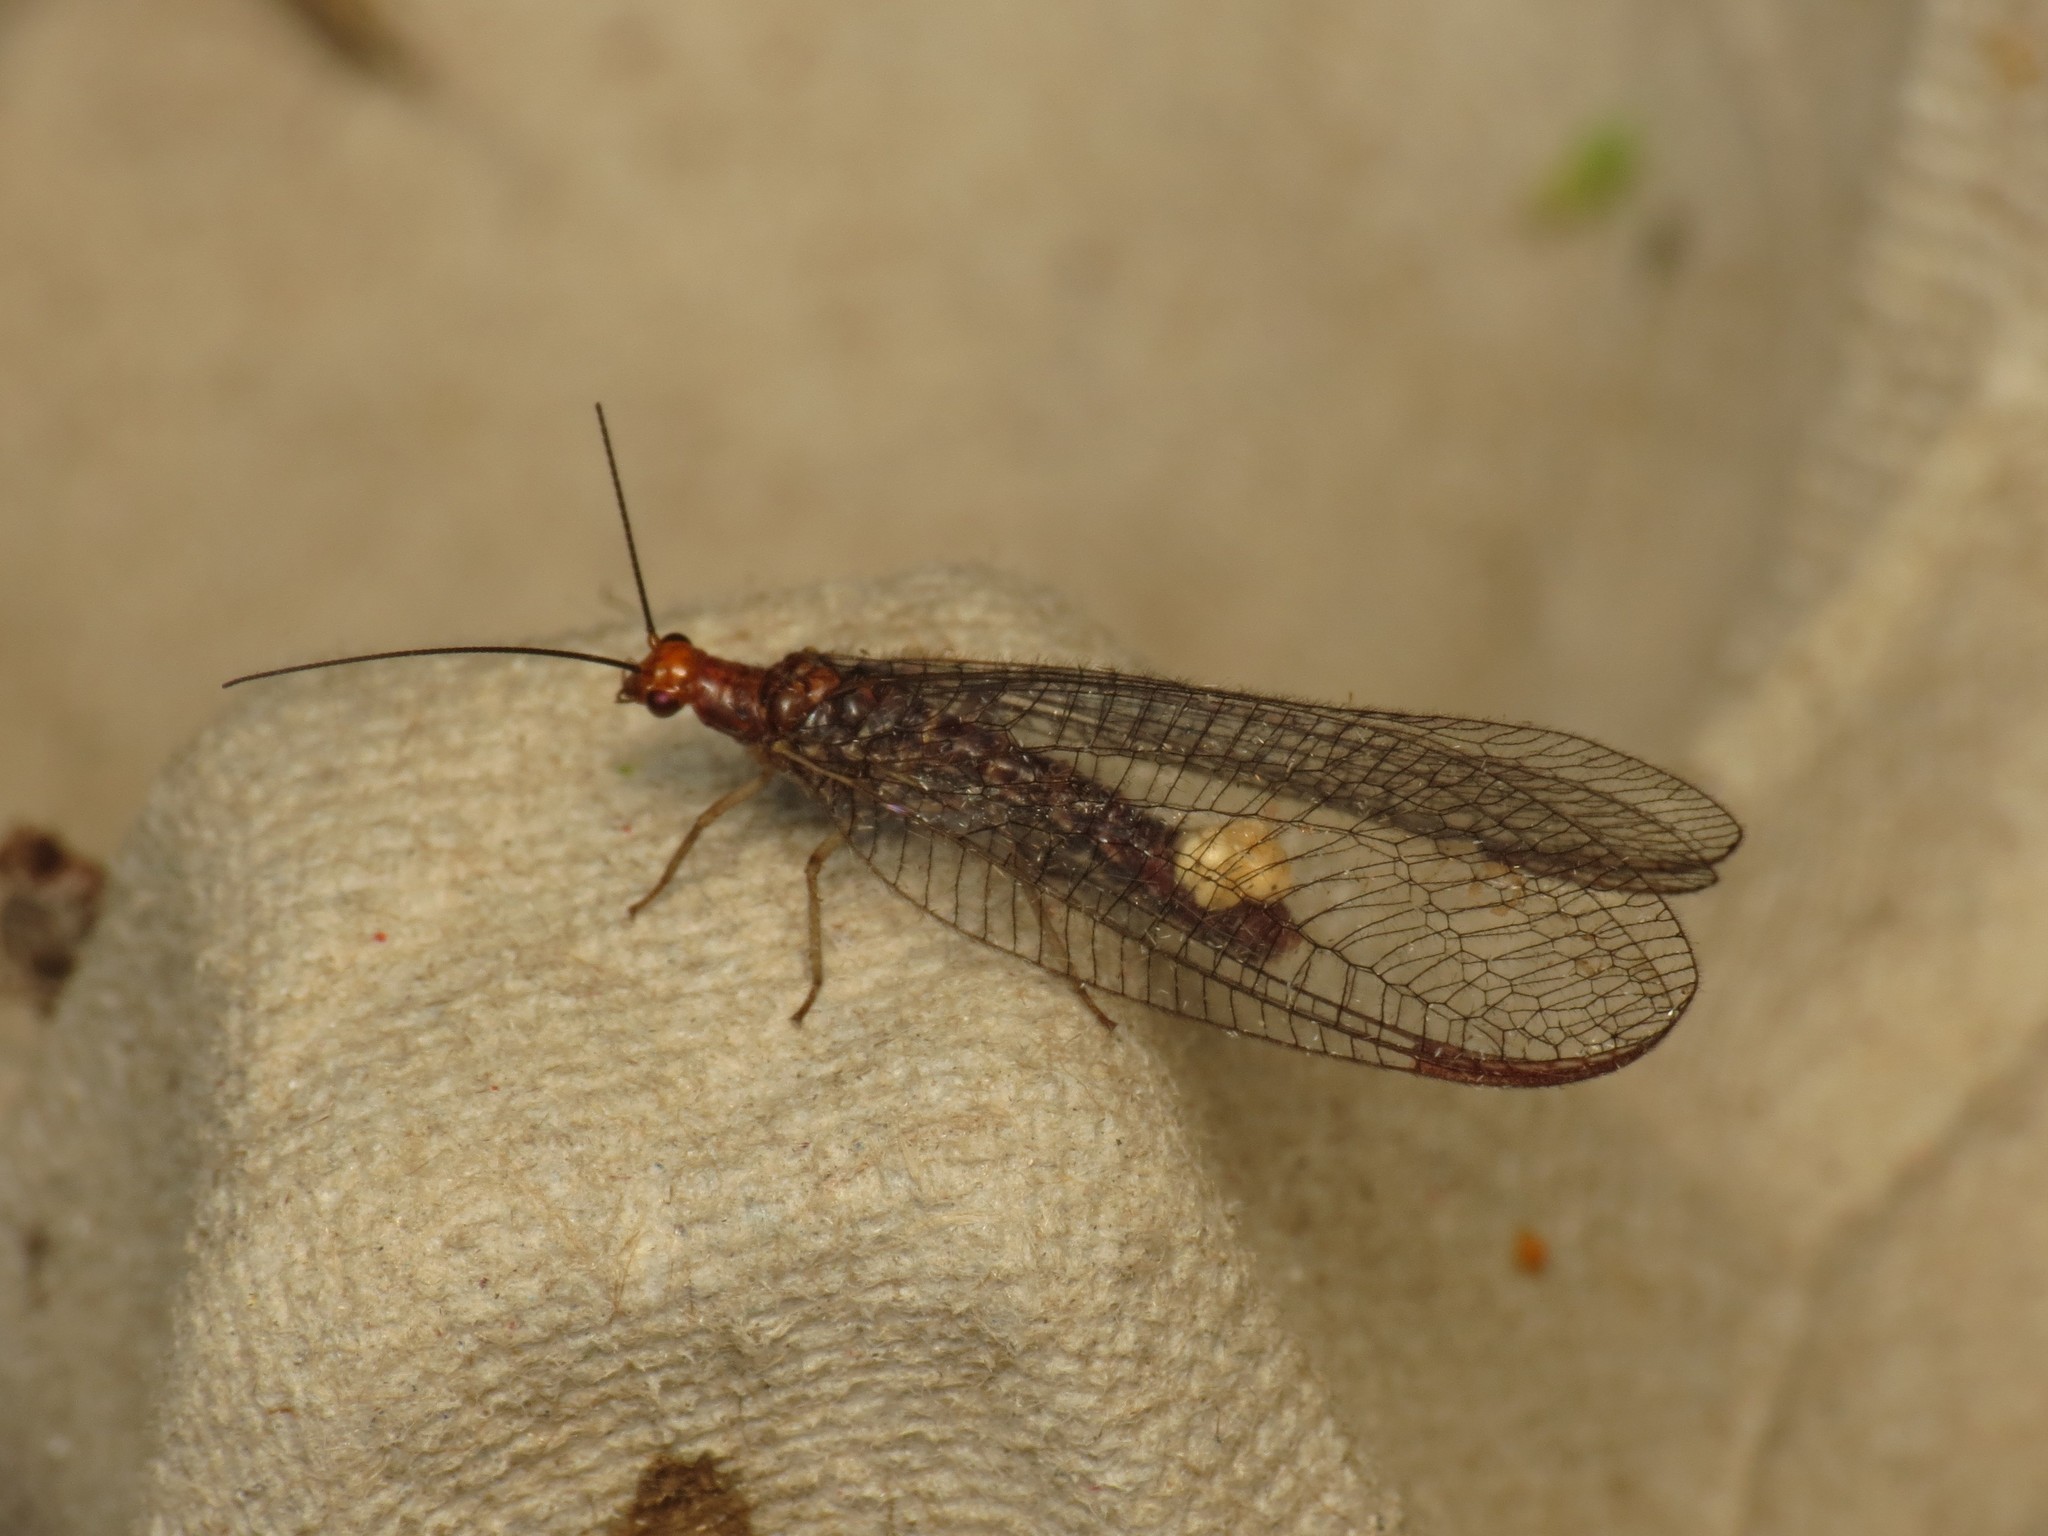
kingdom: Animalia
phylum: Arthropoda
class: Insecta
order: Neuroptera
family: Chrysopidae
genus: Nothochrysa
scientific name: Nothochrysa capitata
